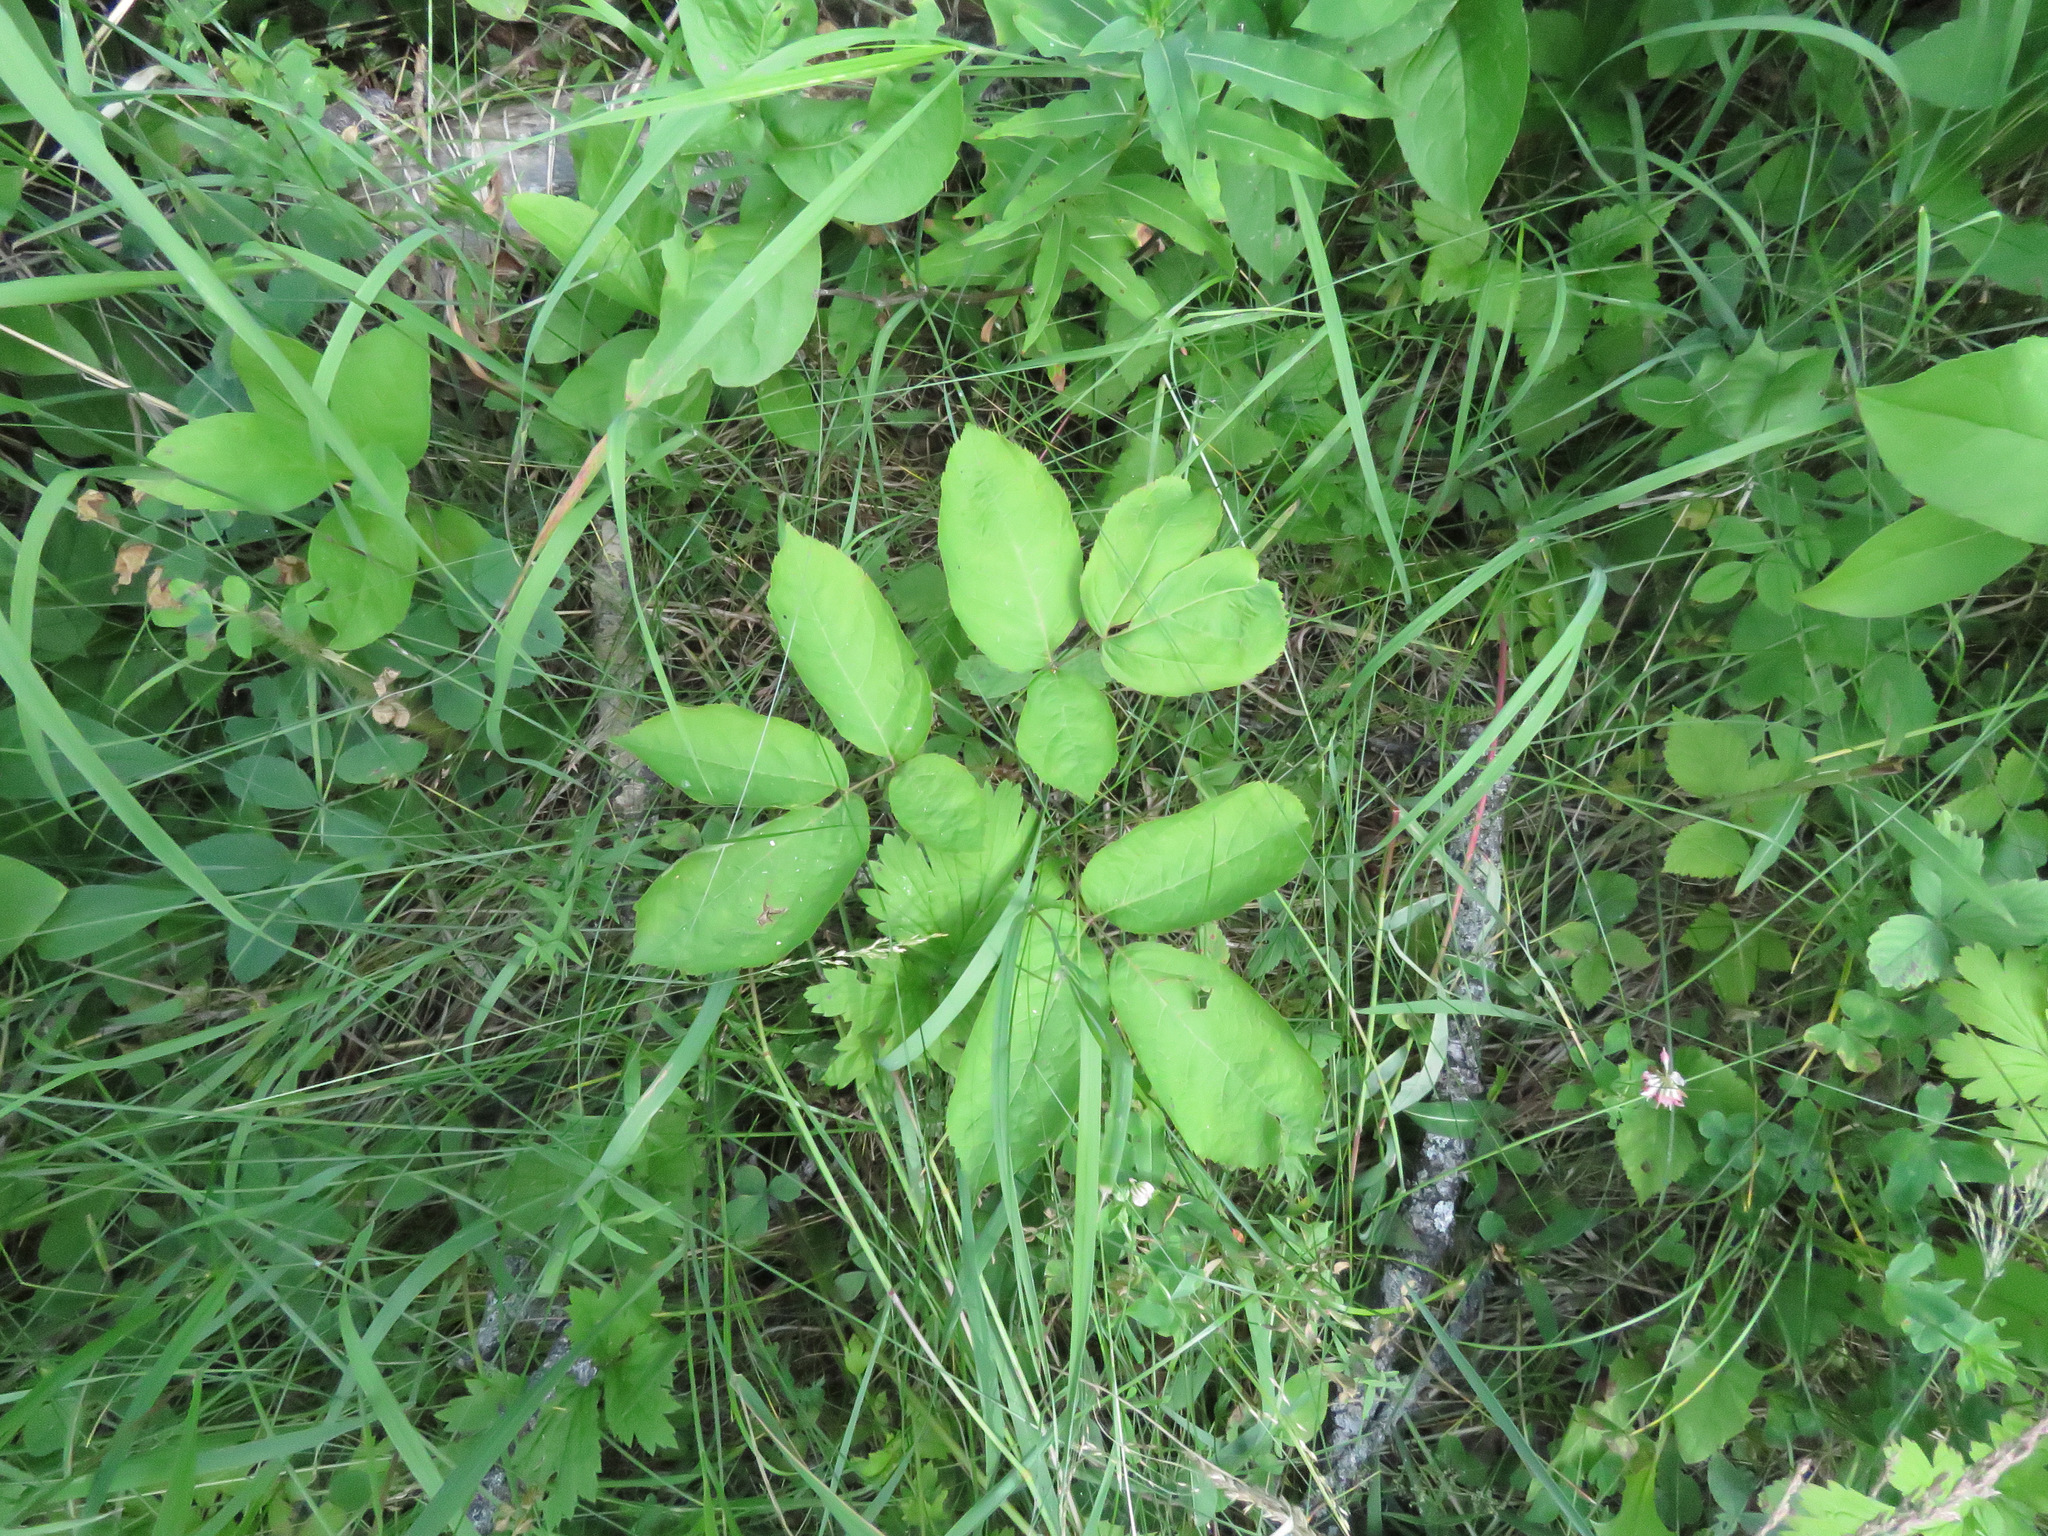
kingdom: Plantae
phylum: Tracheophyta
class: Magnoliopsida
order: Apiales
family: Araliaceae
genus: Aralia
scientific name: Aralia nudicaulis
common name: Wild sarsaparilla
